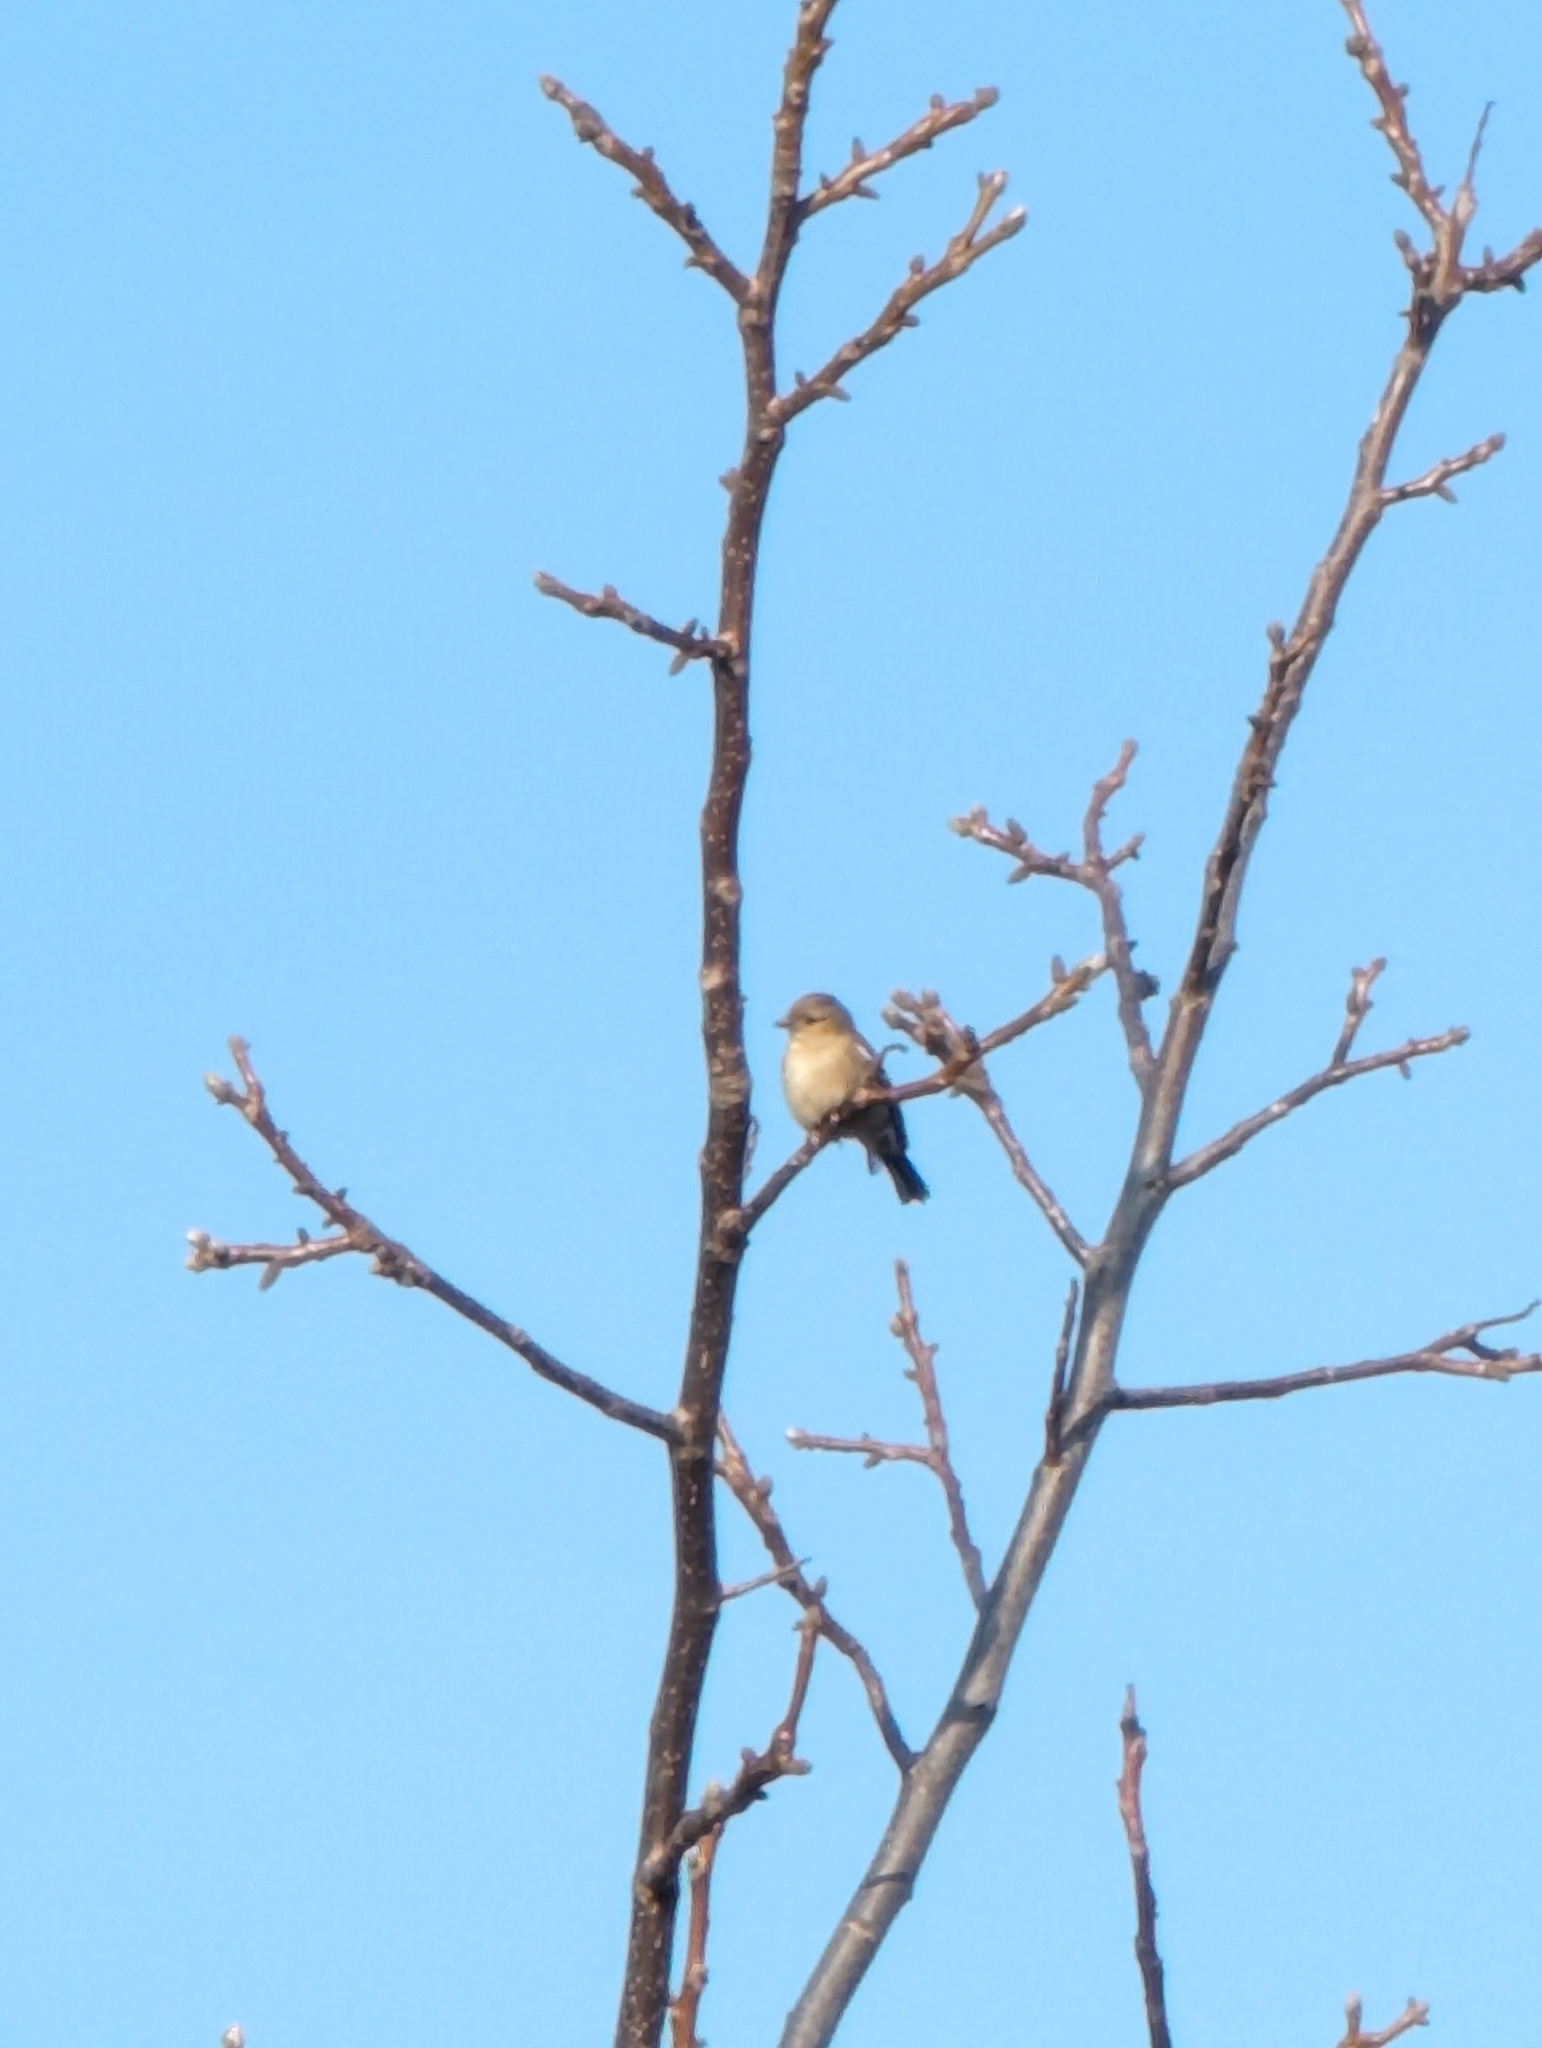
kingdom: Animalia
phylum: Chordata
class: Aves
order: Passeriformes
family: Fringillidae
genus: Fringilla
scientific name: Fringilla coelebs
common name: Common chaffinch
